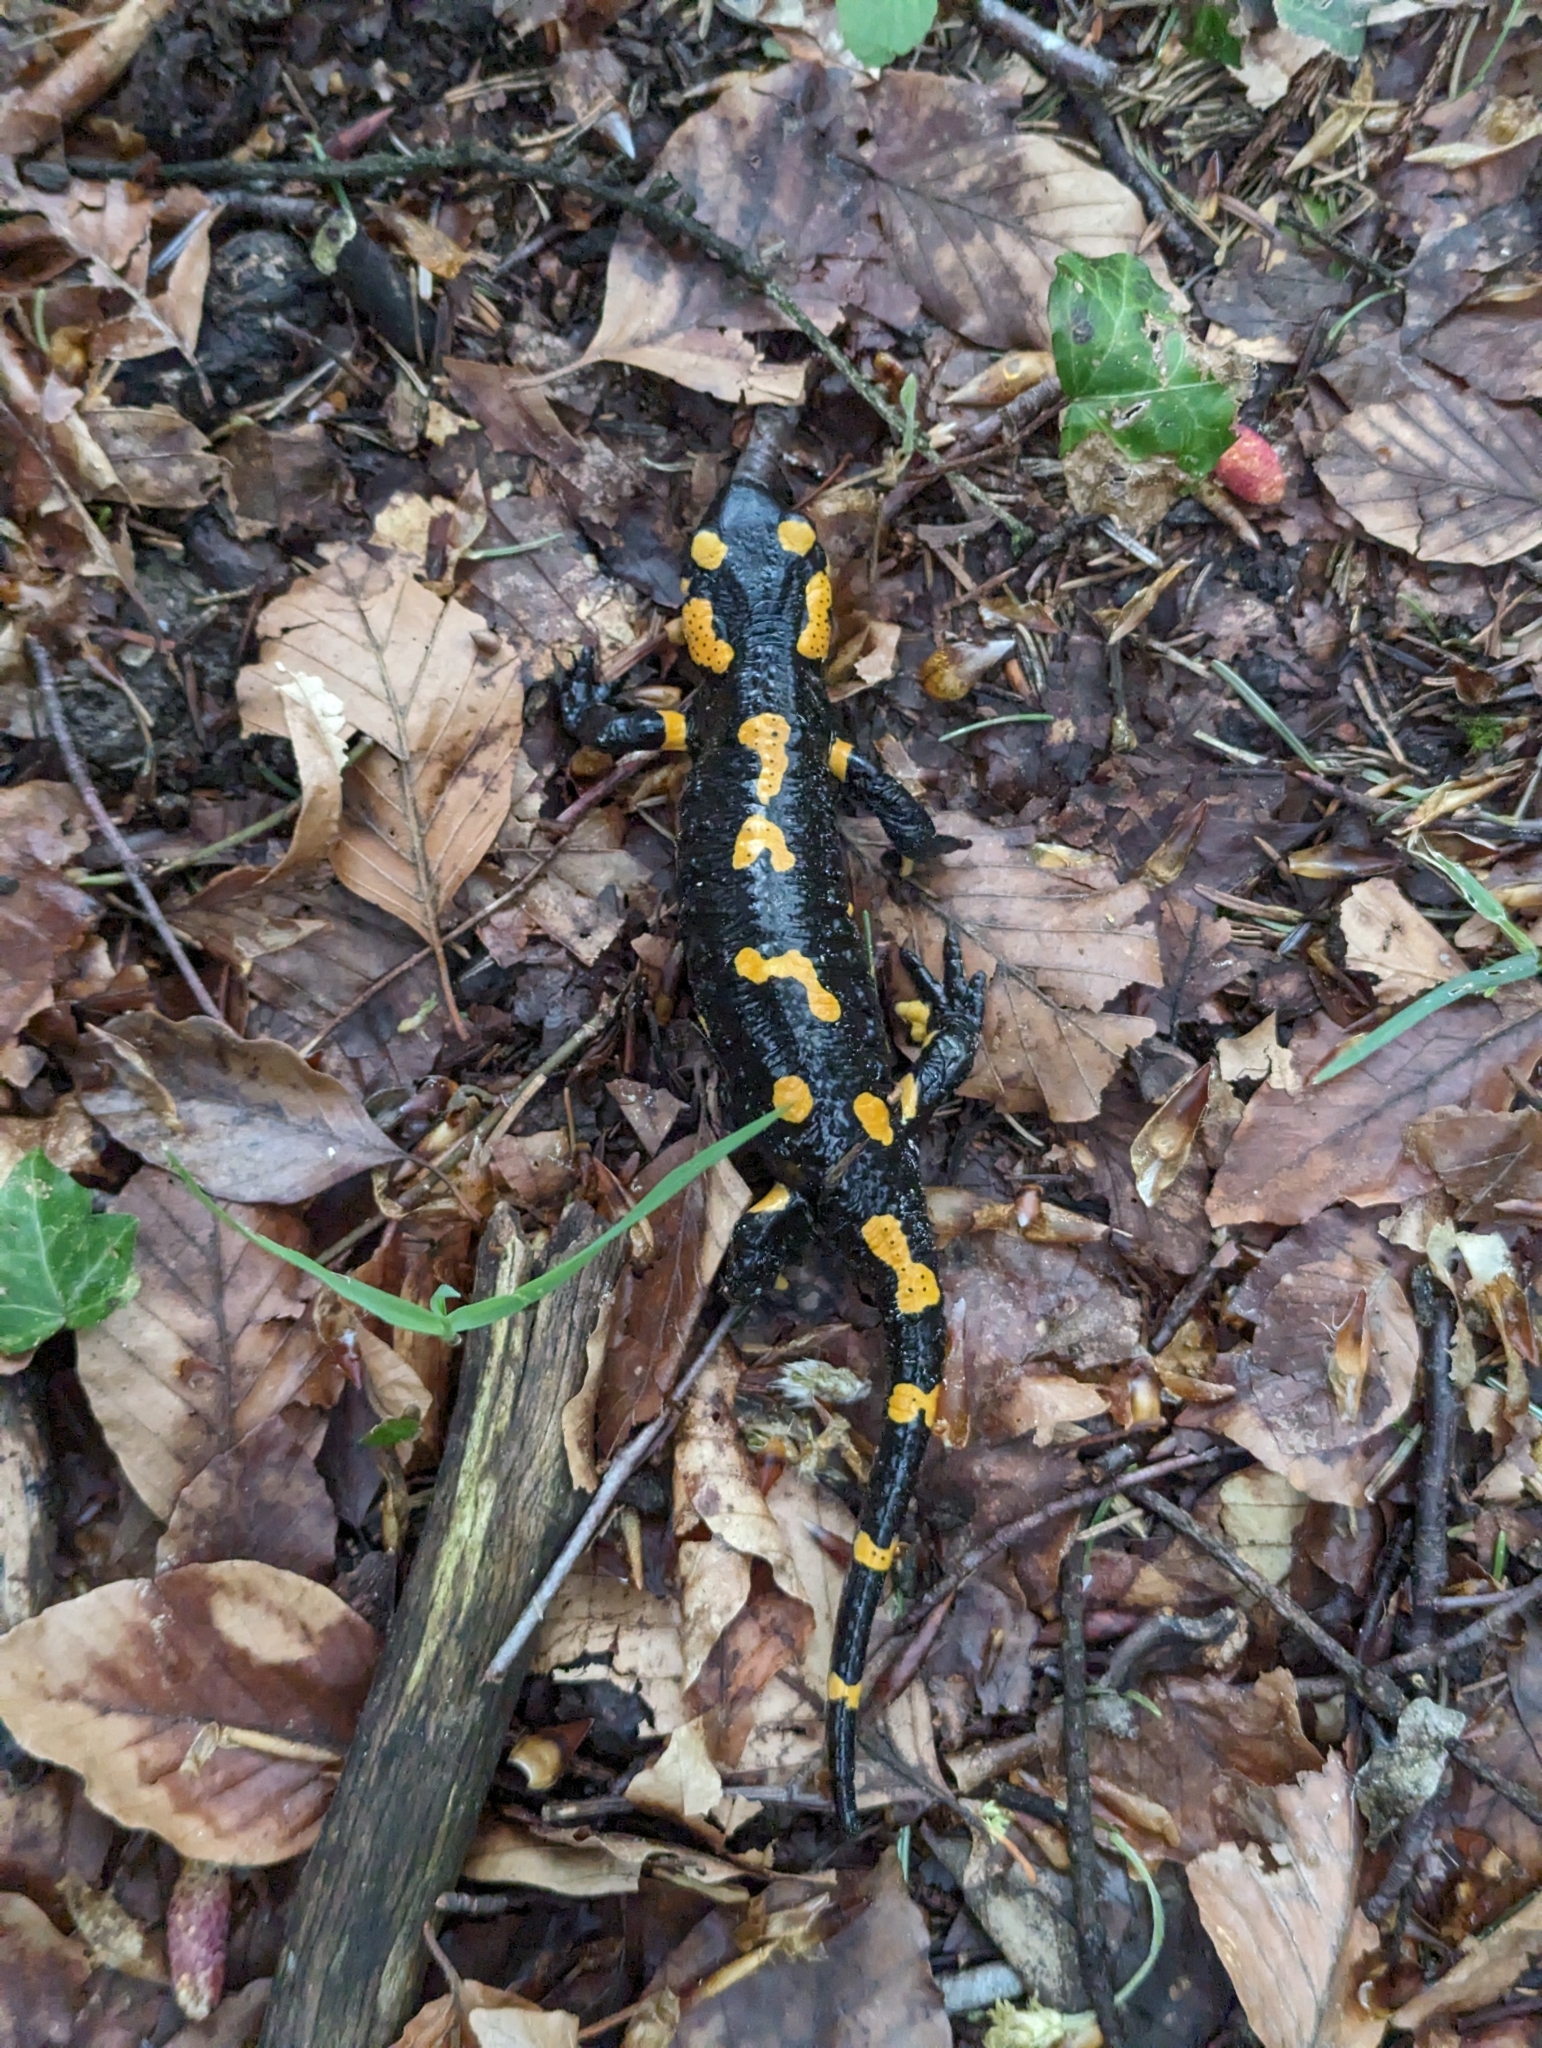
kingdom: Animalia
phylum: Chordata
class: Amphibia
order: Caudata
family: Salamandridae
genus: Salamandra
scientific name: Salamandra salamandra
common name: Fire salamander
